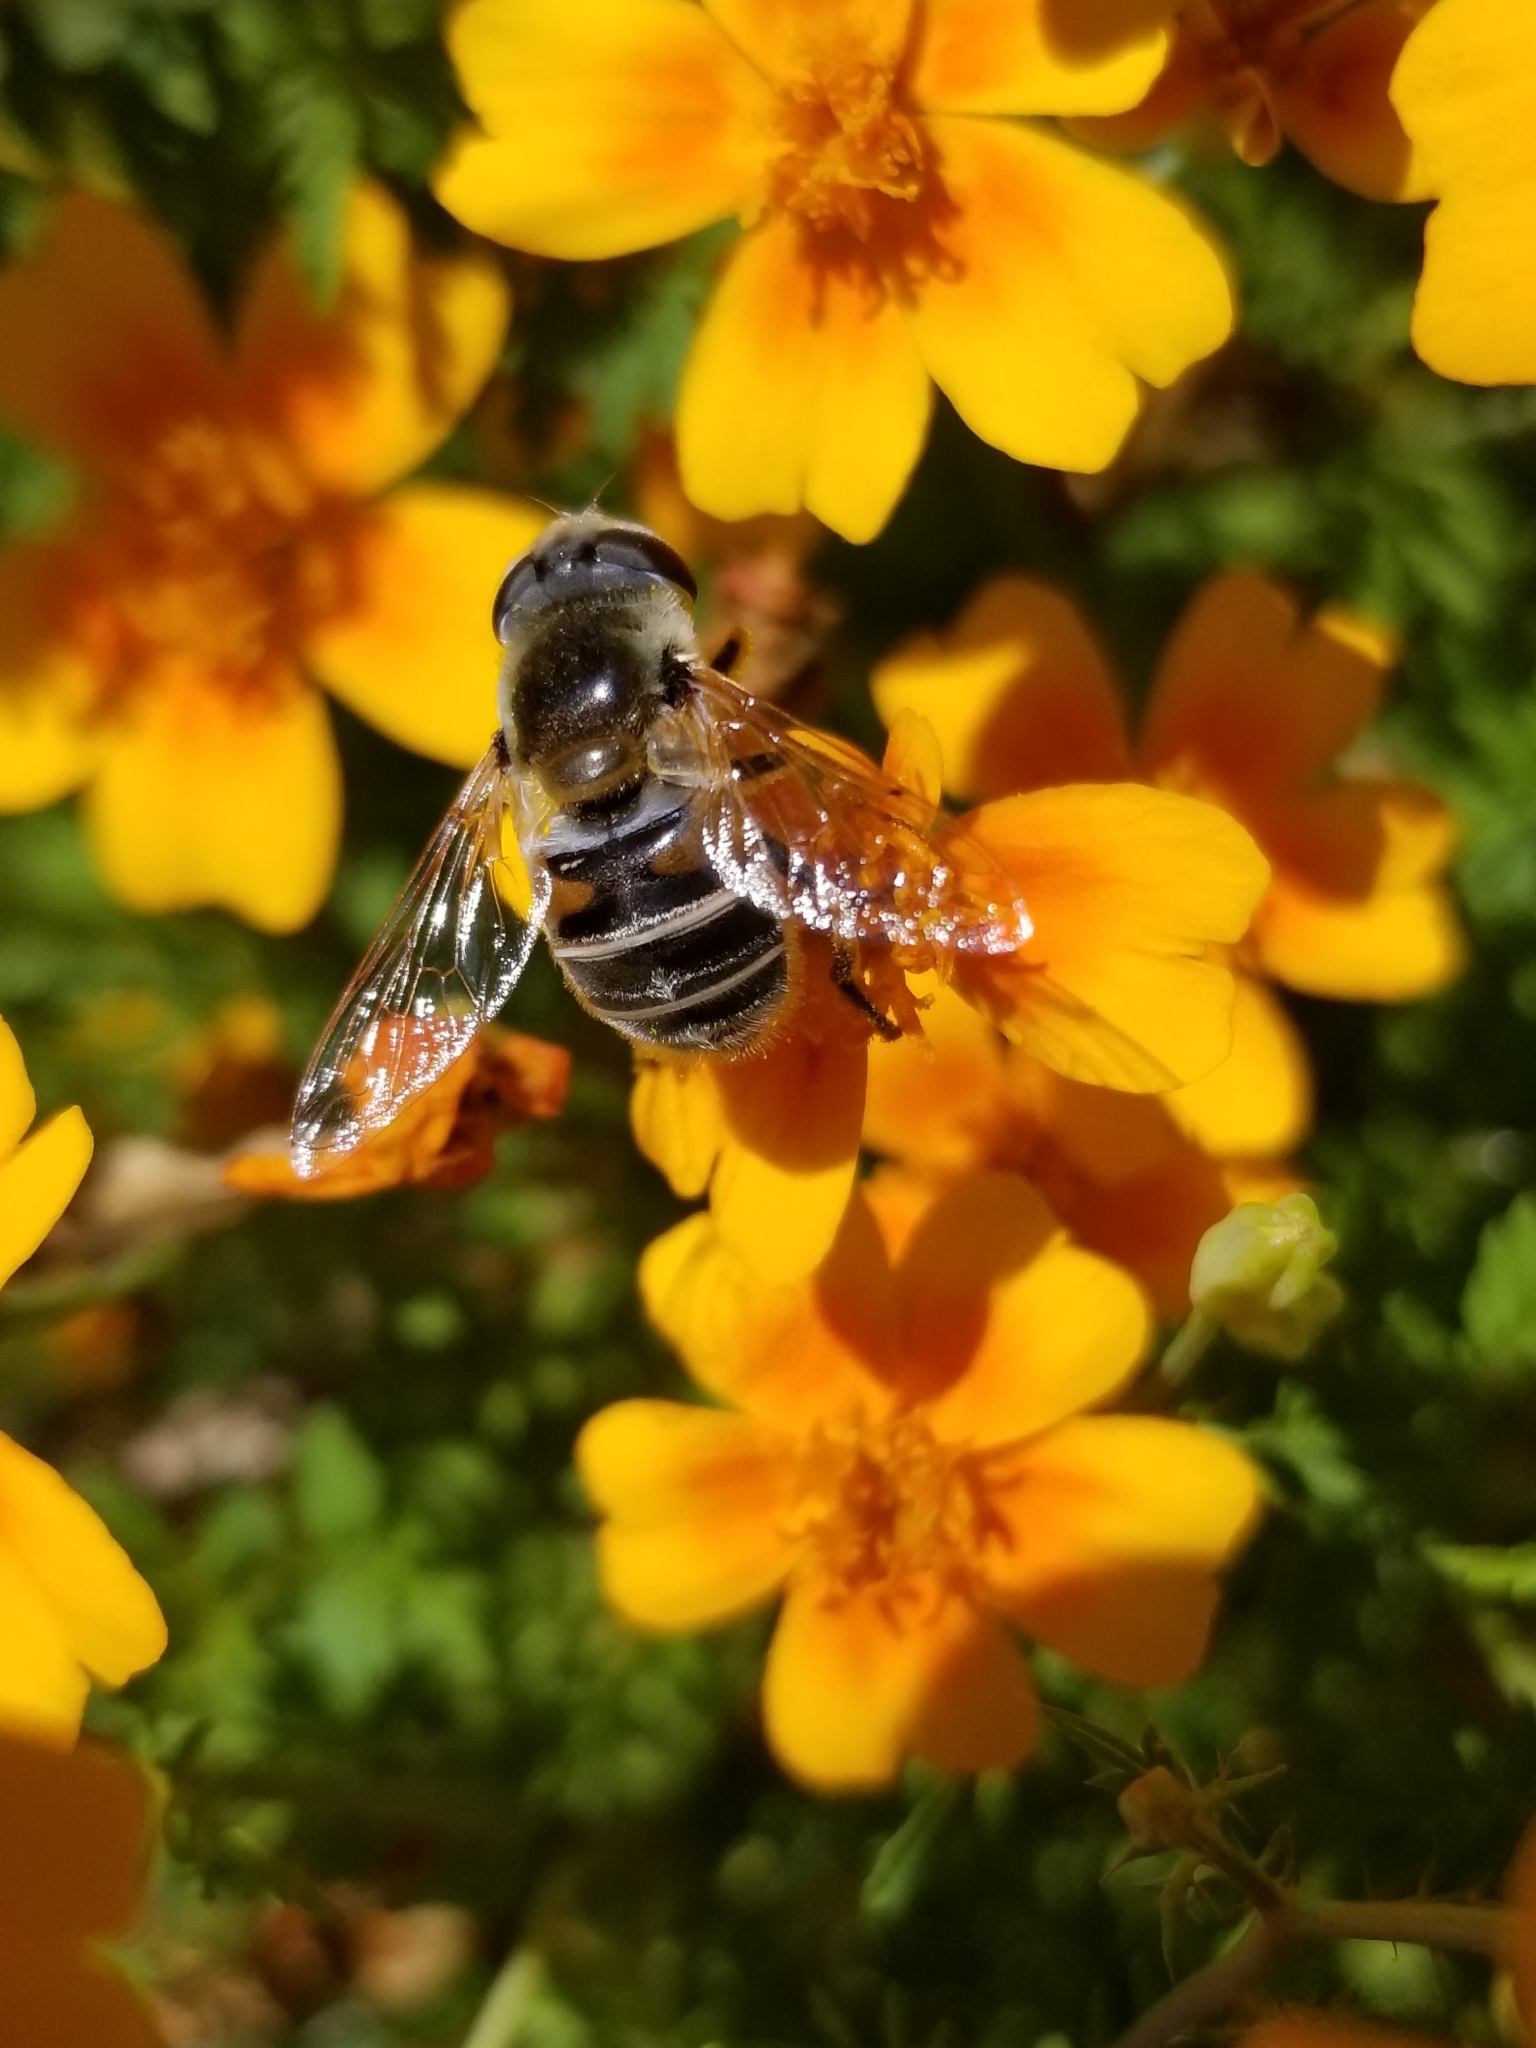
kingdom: Animalia
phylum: Arthropoda
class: Insecta
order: Diptera
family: Syrphidae
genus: Eristalis
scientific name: Eristalis stipator
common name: Yellow-shouldered drone fly
